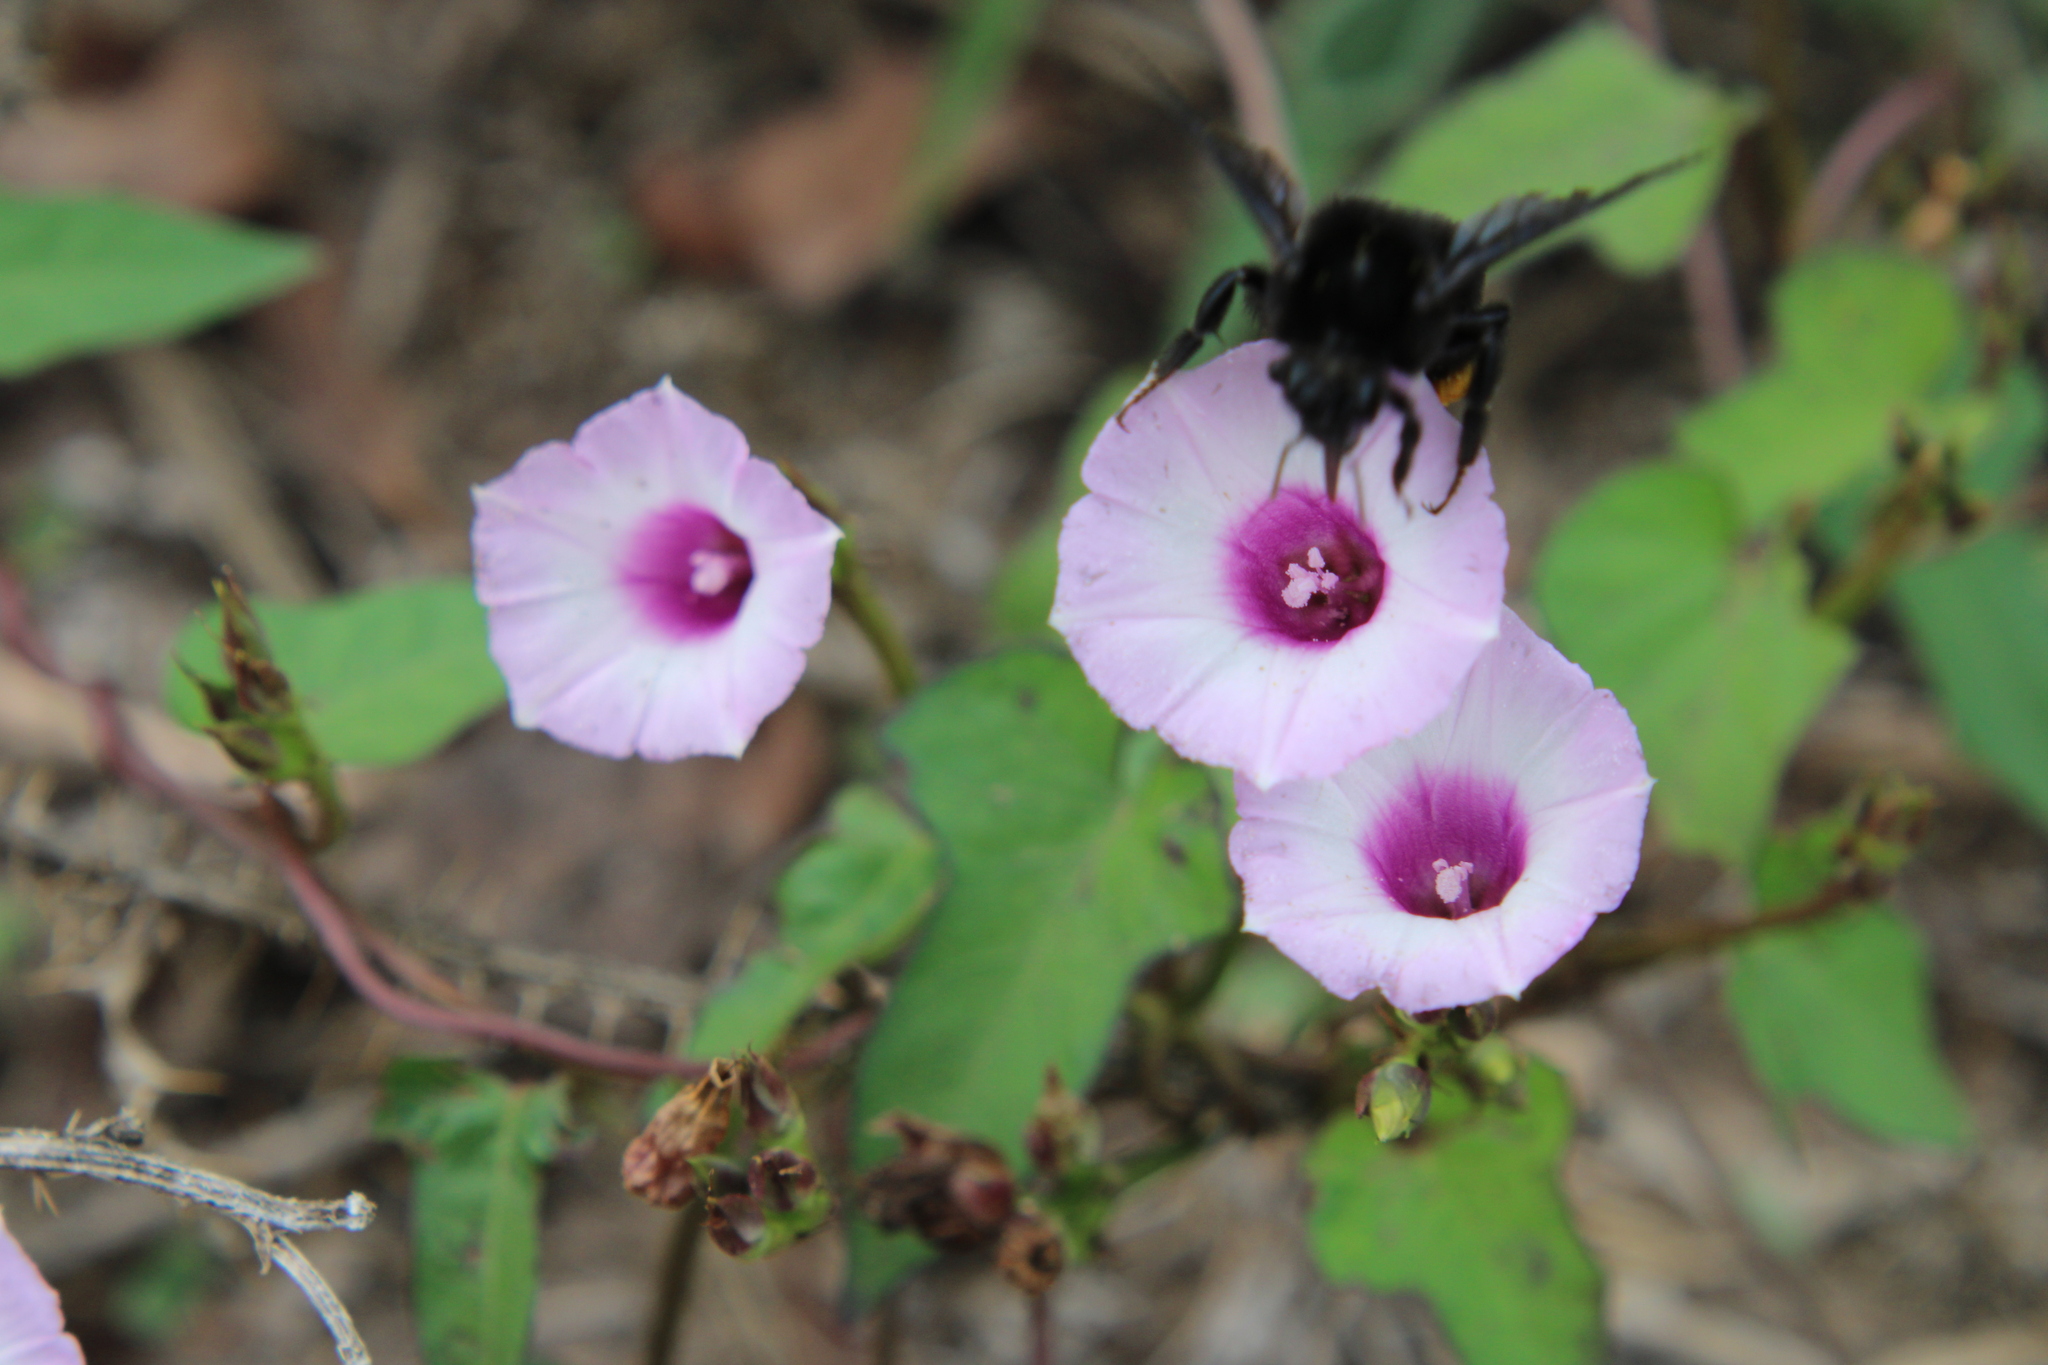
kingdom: Animalia
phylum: Arthropoda
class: Insecta
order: Hymenoptera
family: Apidae
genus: Bombus
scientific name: Bombus pauloensis
